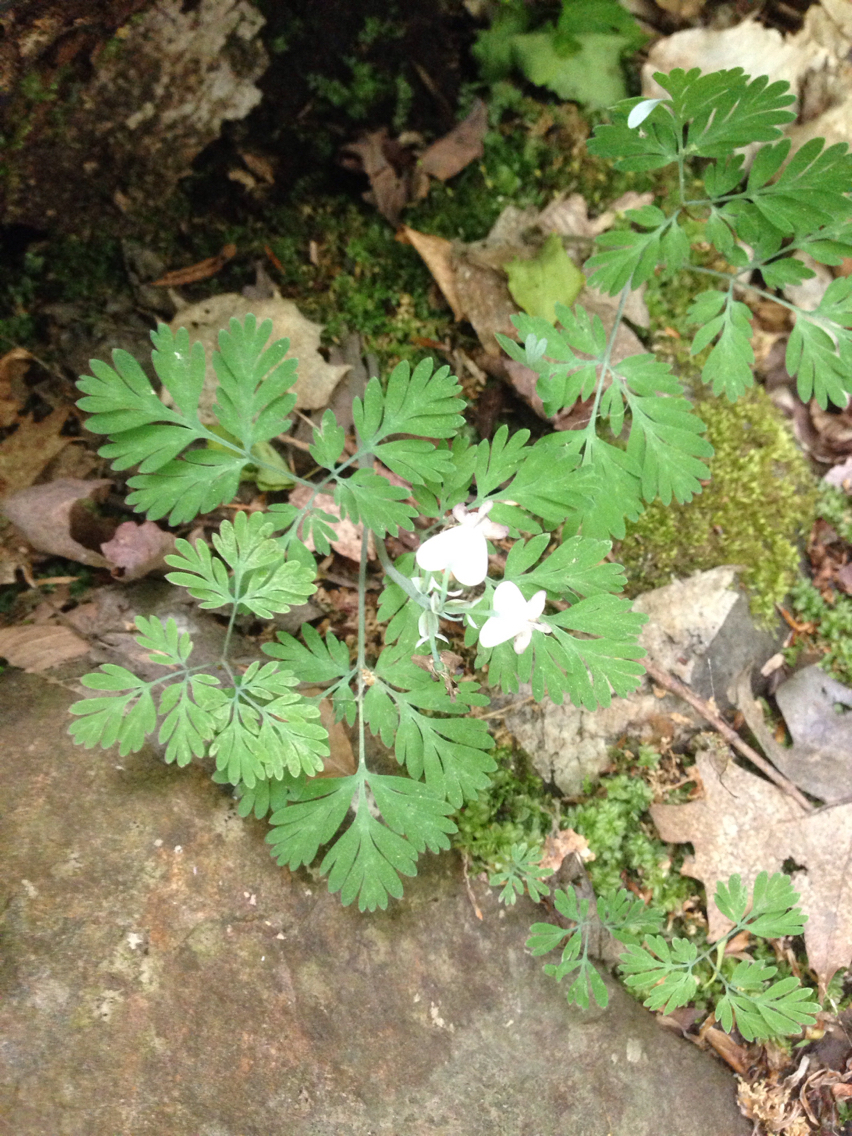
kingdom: Plantae
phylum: Tracheophyta
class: Magnoliopsida
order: Ranunculales
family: Papaveraceae
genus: Dicentra
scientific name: Dicentra canadensis
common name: Squirrel-corn
